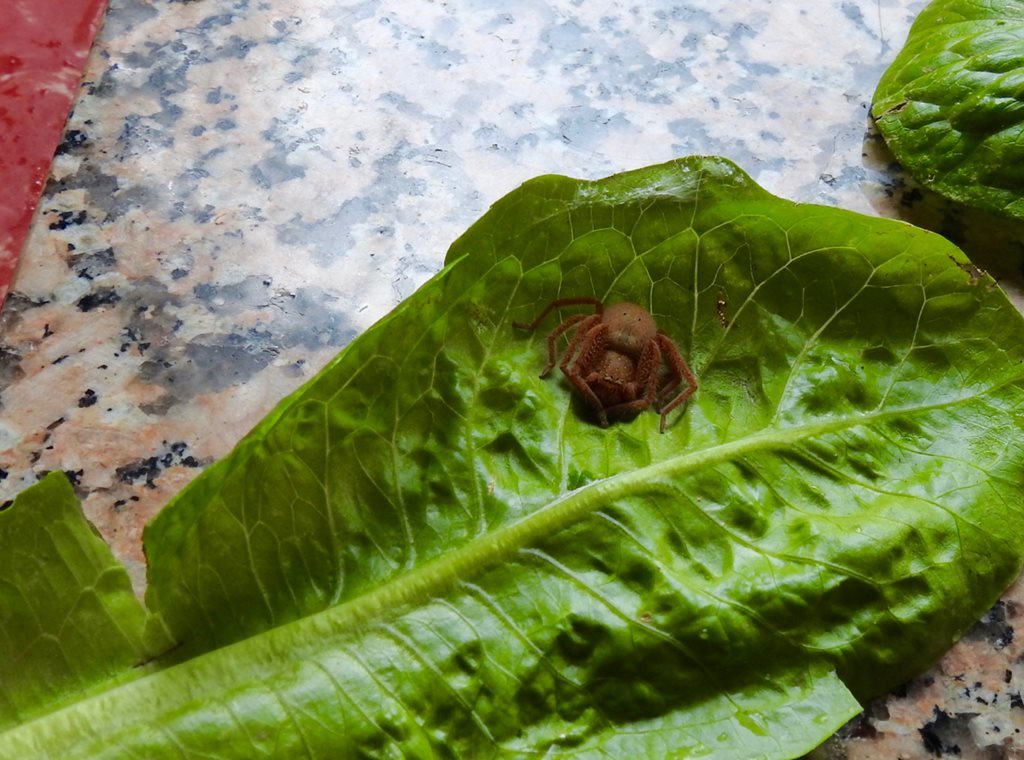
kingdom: Animalia
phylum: Arthropoda
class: Arachnida
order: Araneae
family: Sparassidae
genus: Neosparassus
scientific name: Neosparassus diana
